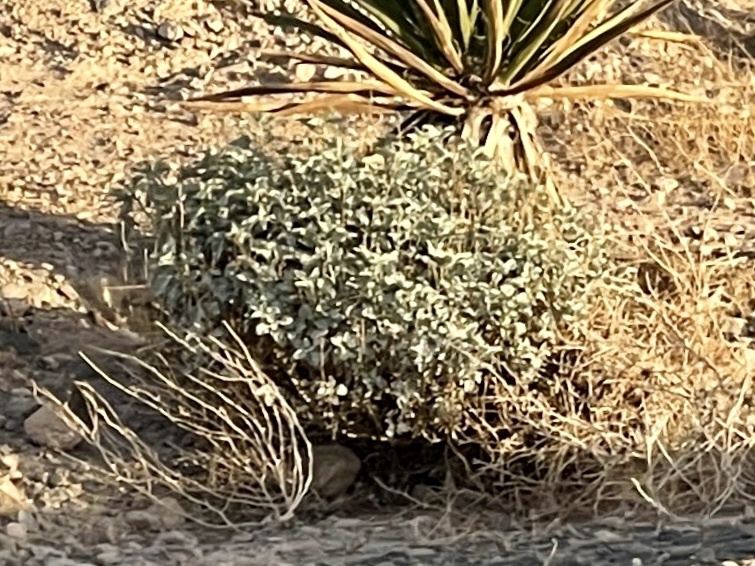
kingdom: Plantae
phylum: Tracheophyta
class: Magnoliopsida
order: Asterales
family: Asteraceae
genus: Encelia
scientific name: Encelia farinosa
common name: Brittlebush
